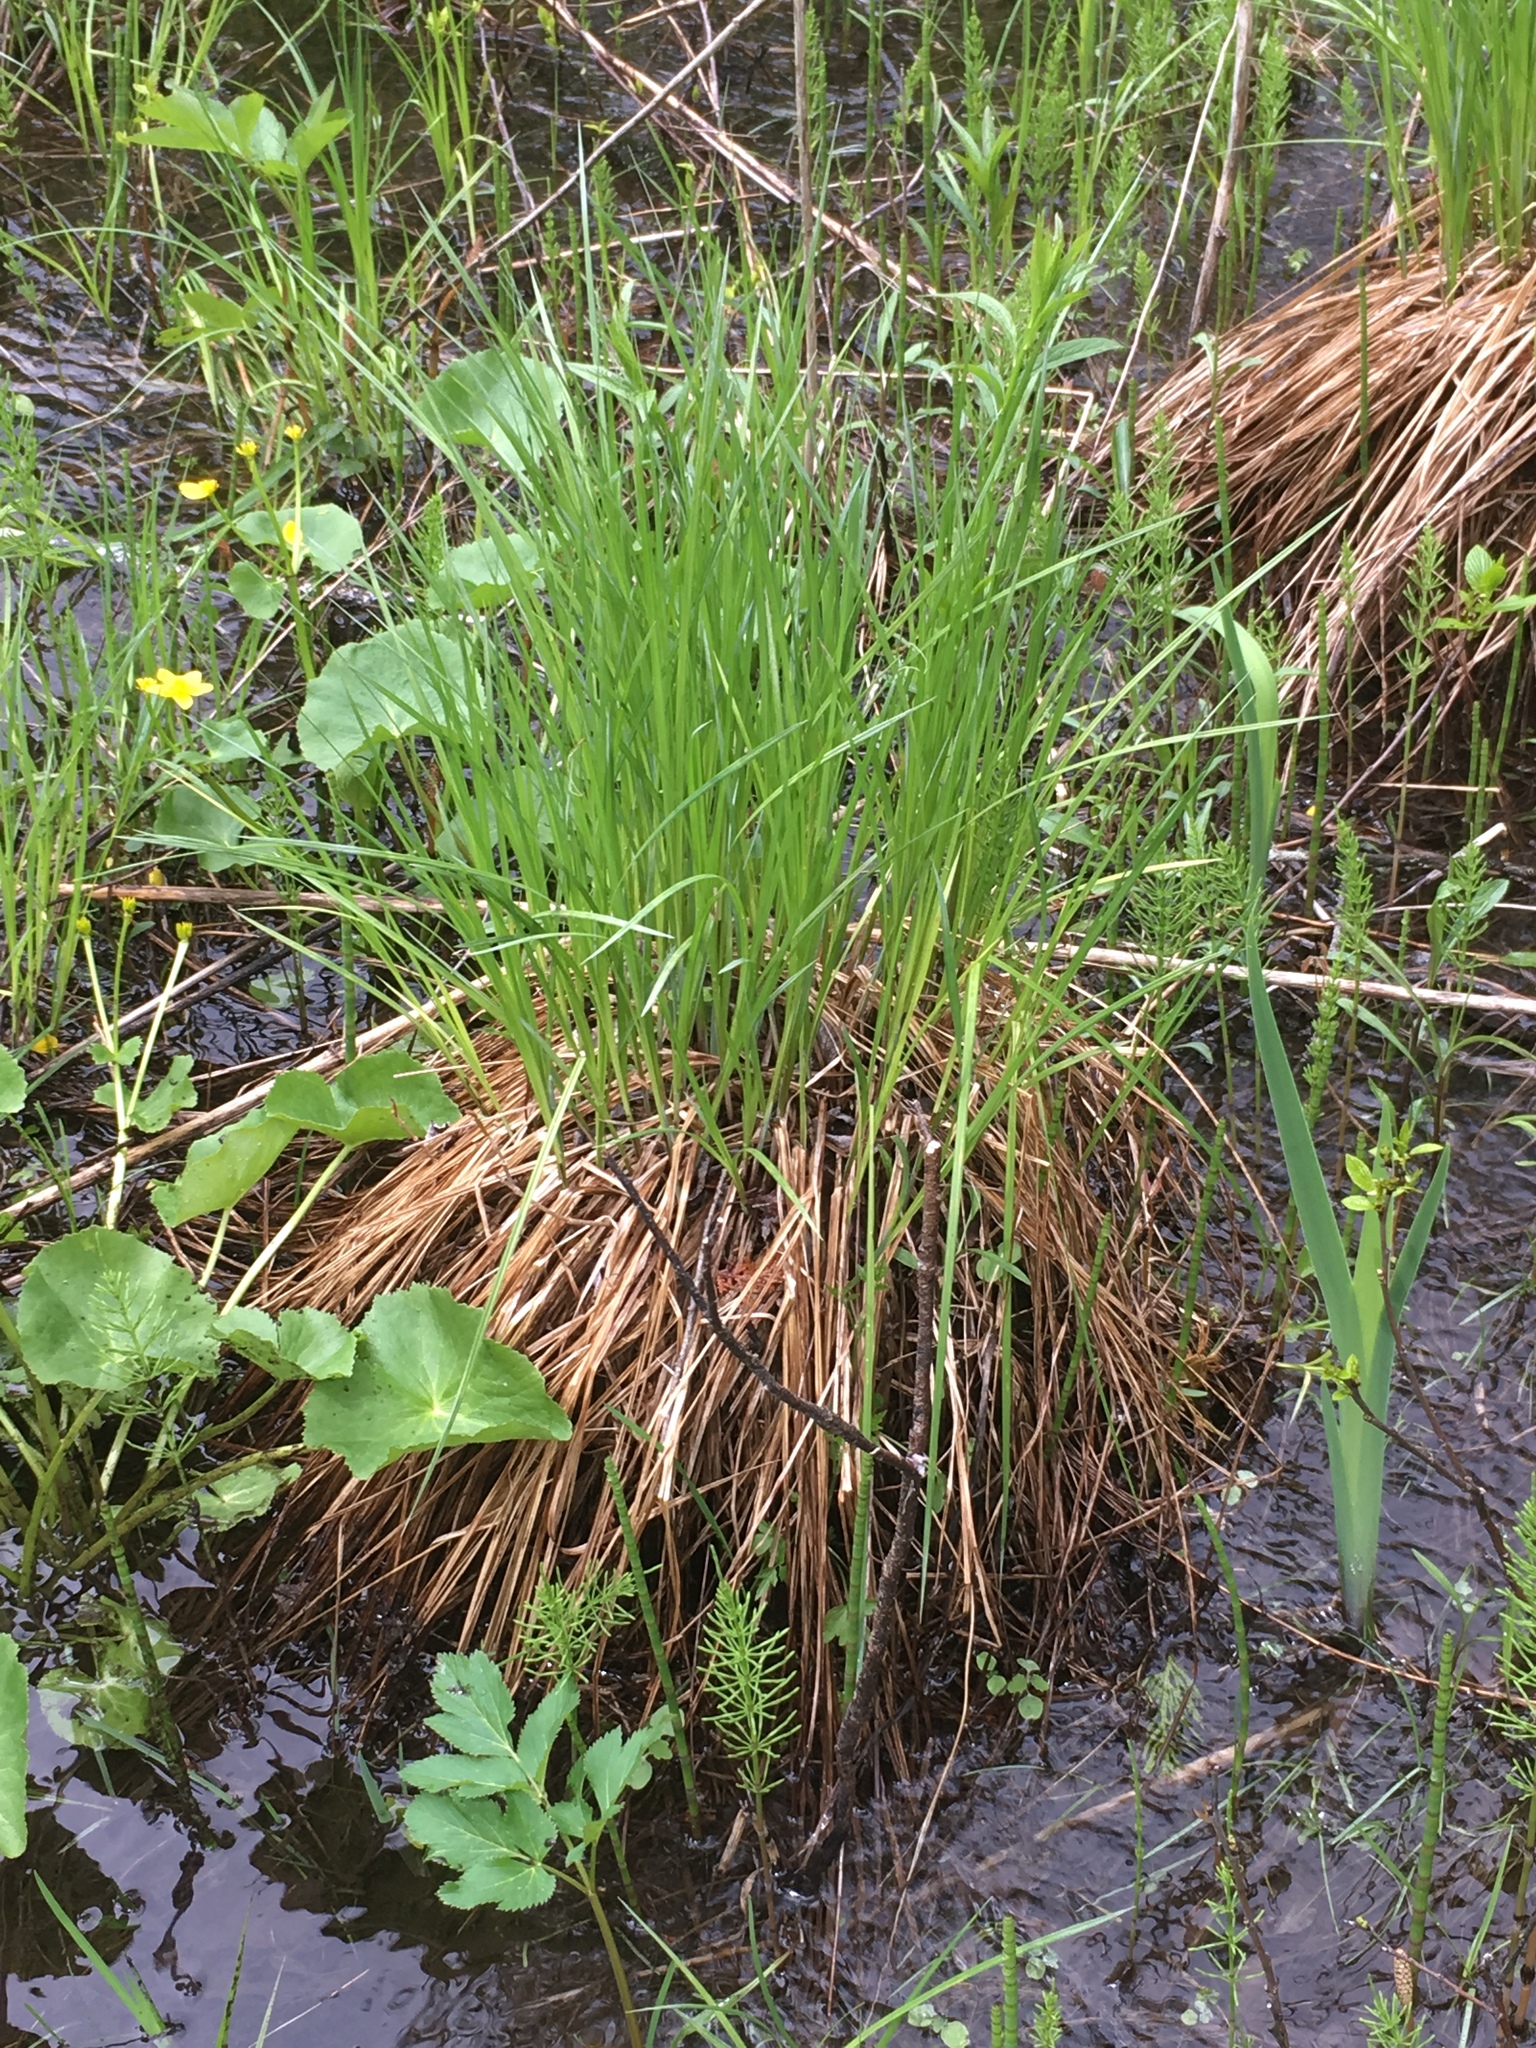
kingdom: Plantae
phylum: Tracheophyta
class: Liliopsida
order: Poales
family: Cyperaceae
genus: Carex
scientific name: Carex stricta
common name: Hummock sedge
